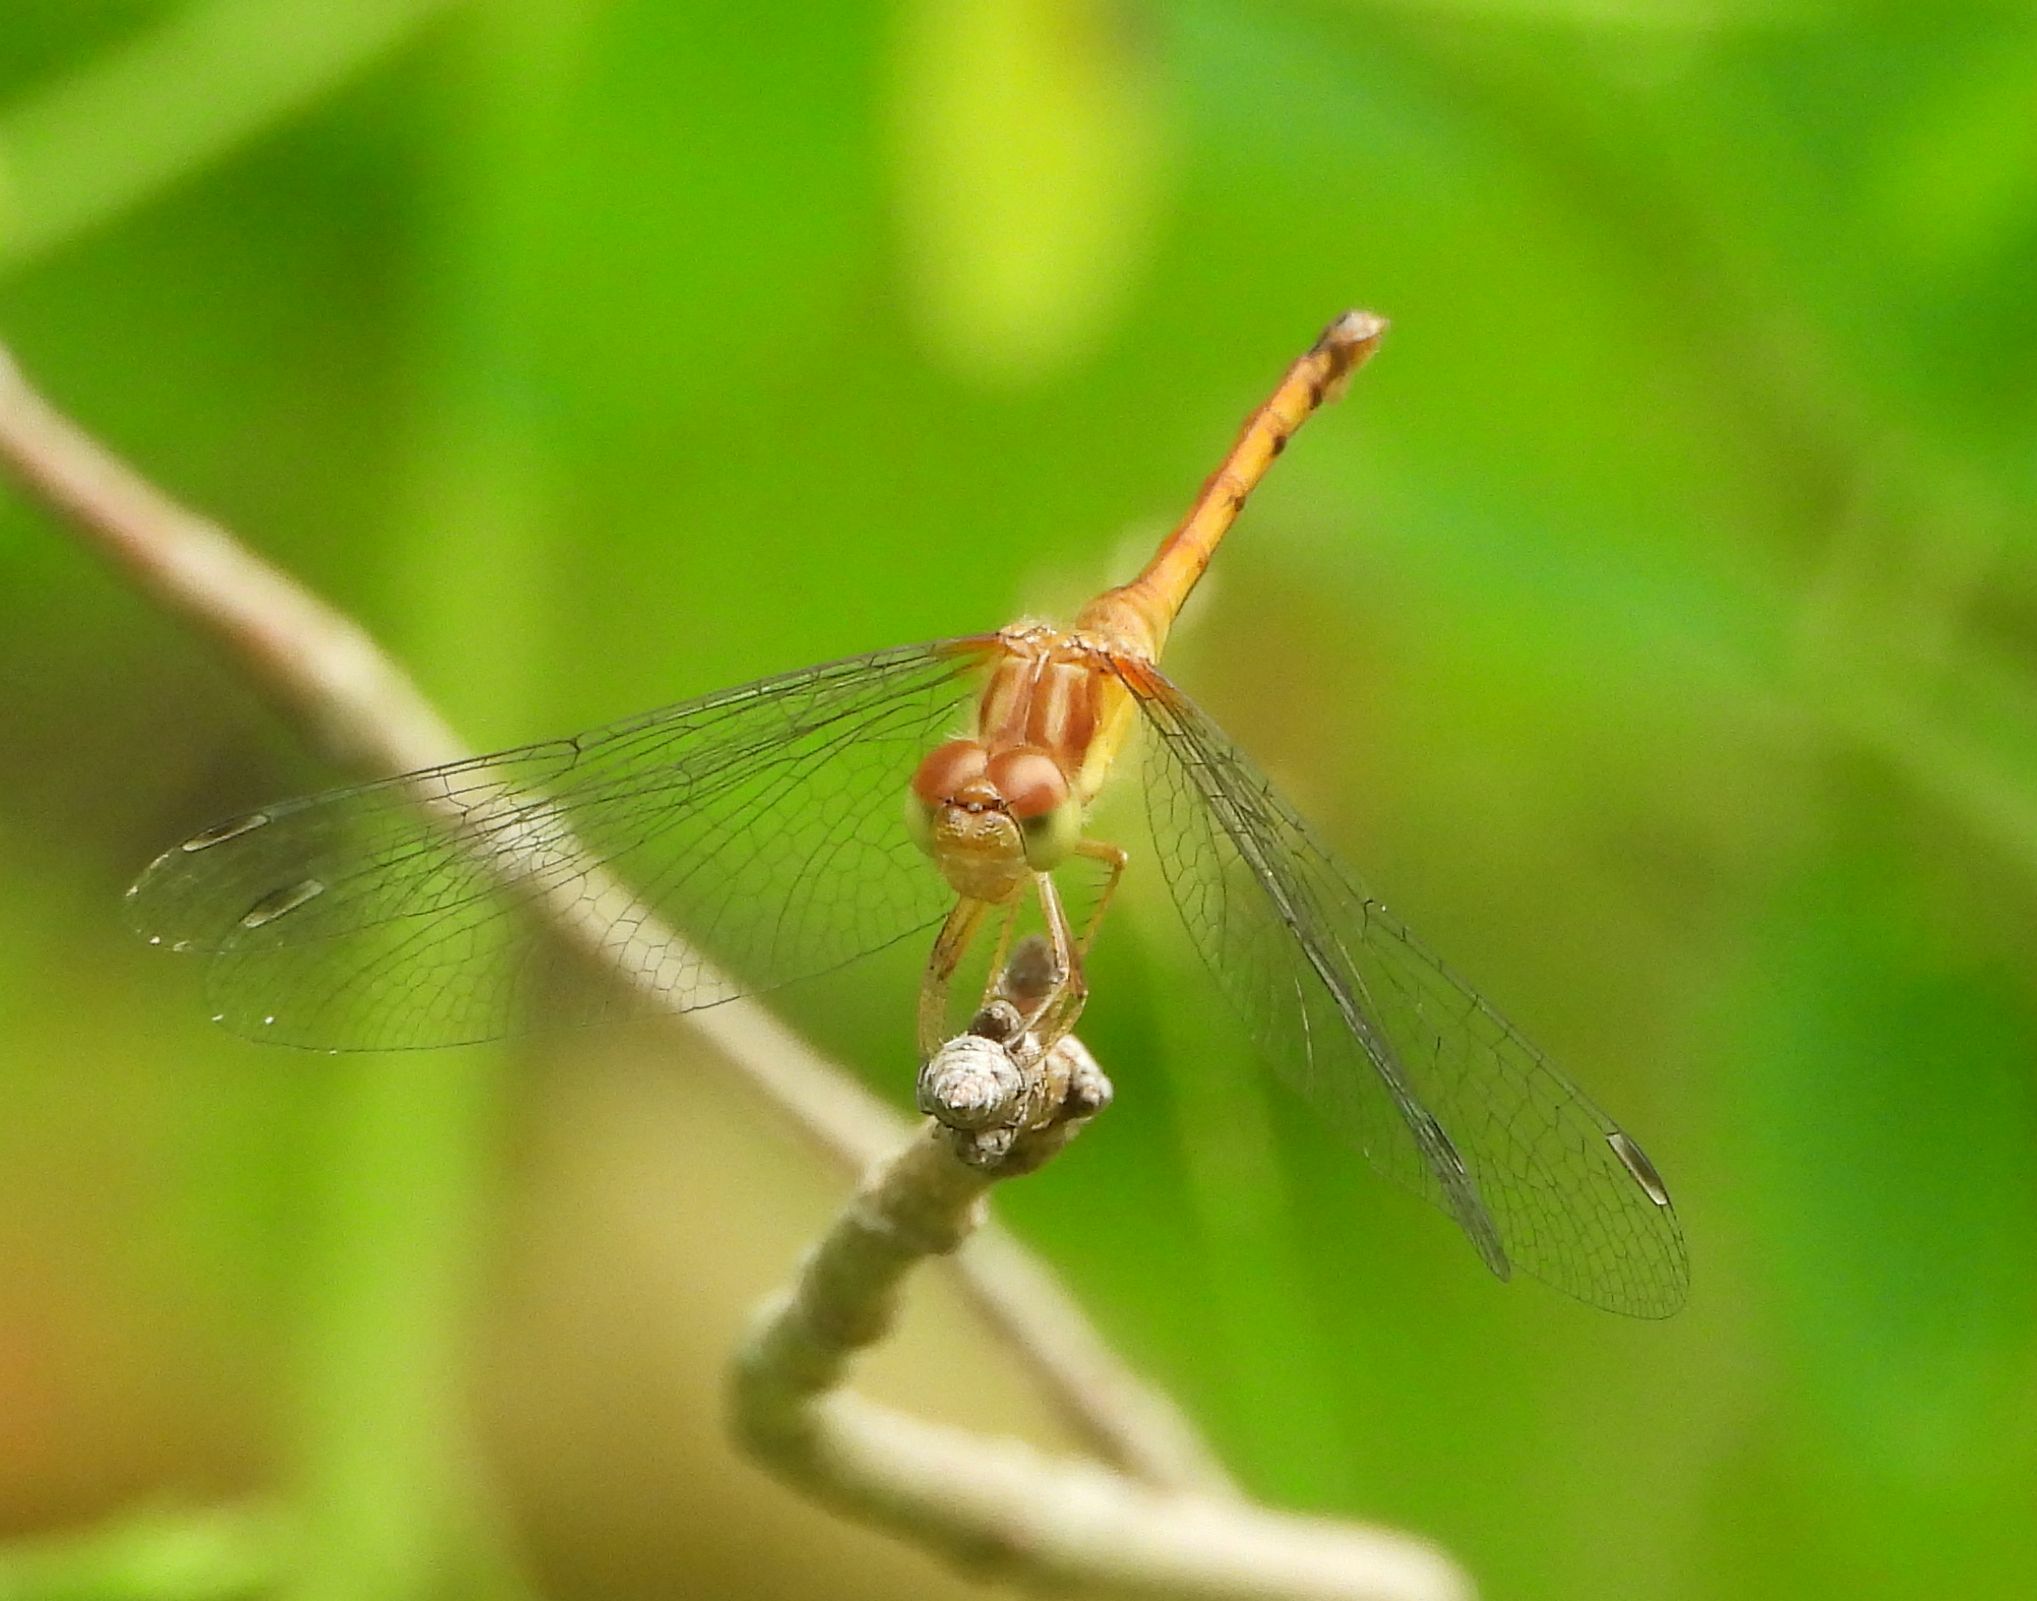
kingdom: Animalia
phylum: Arthropoda
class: Insecta
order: Odonata
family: Libellulidae
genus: Sympetrum
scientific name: Sympetrum vicinum
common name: Autumn meadowhawk
